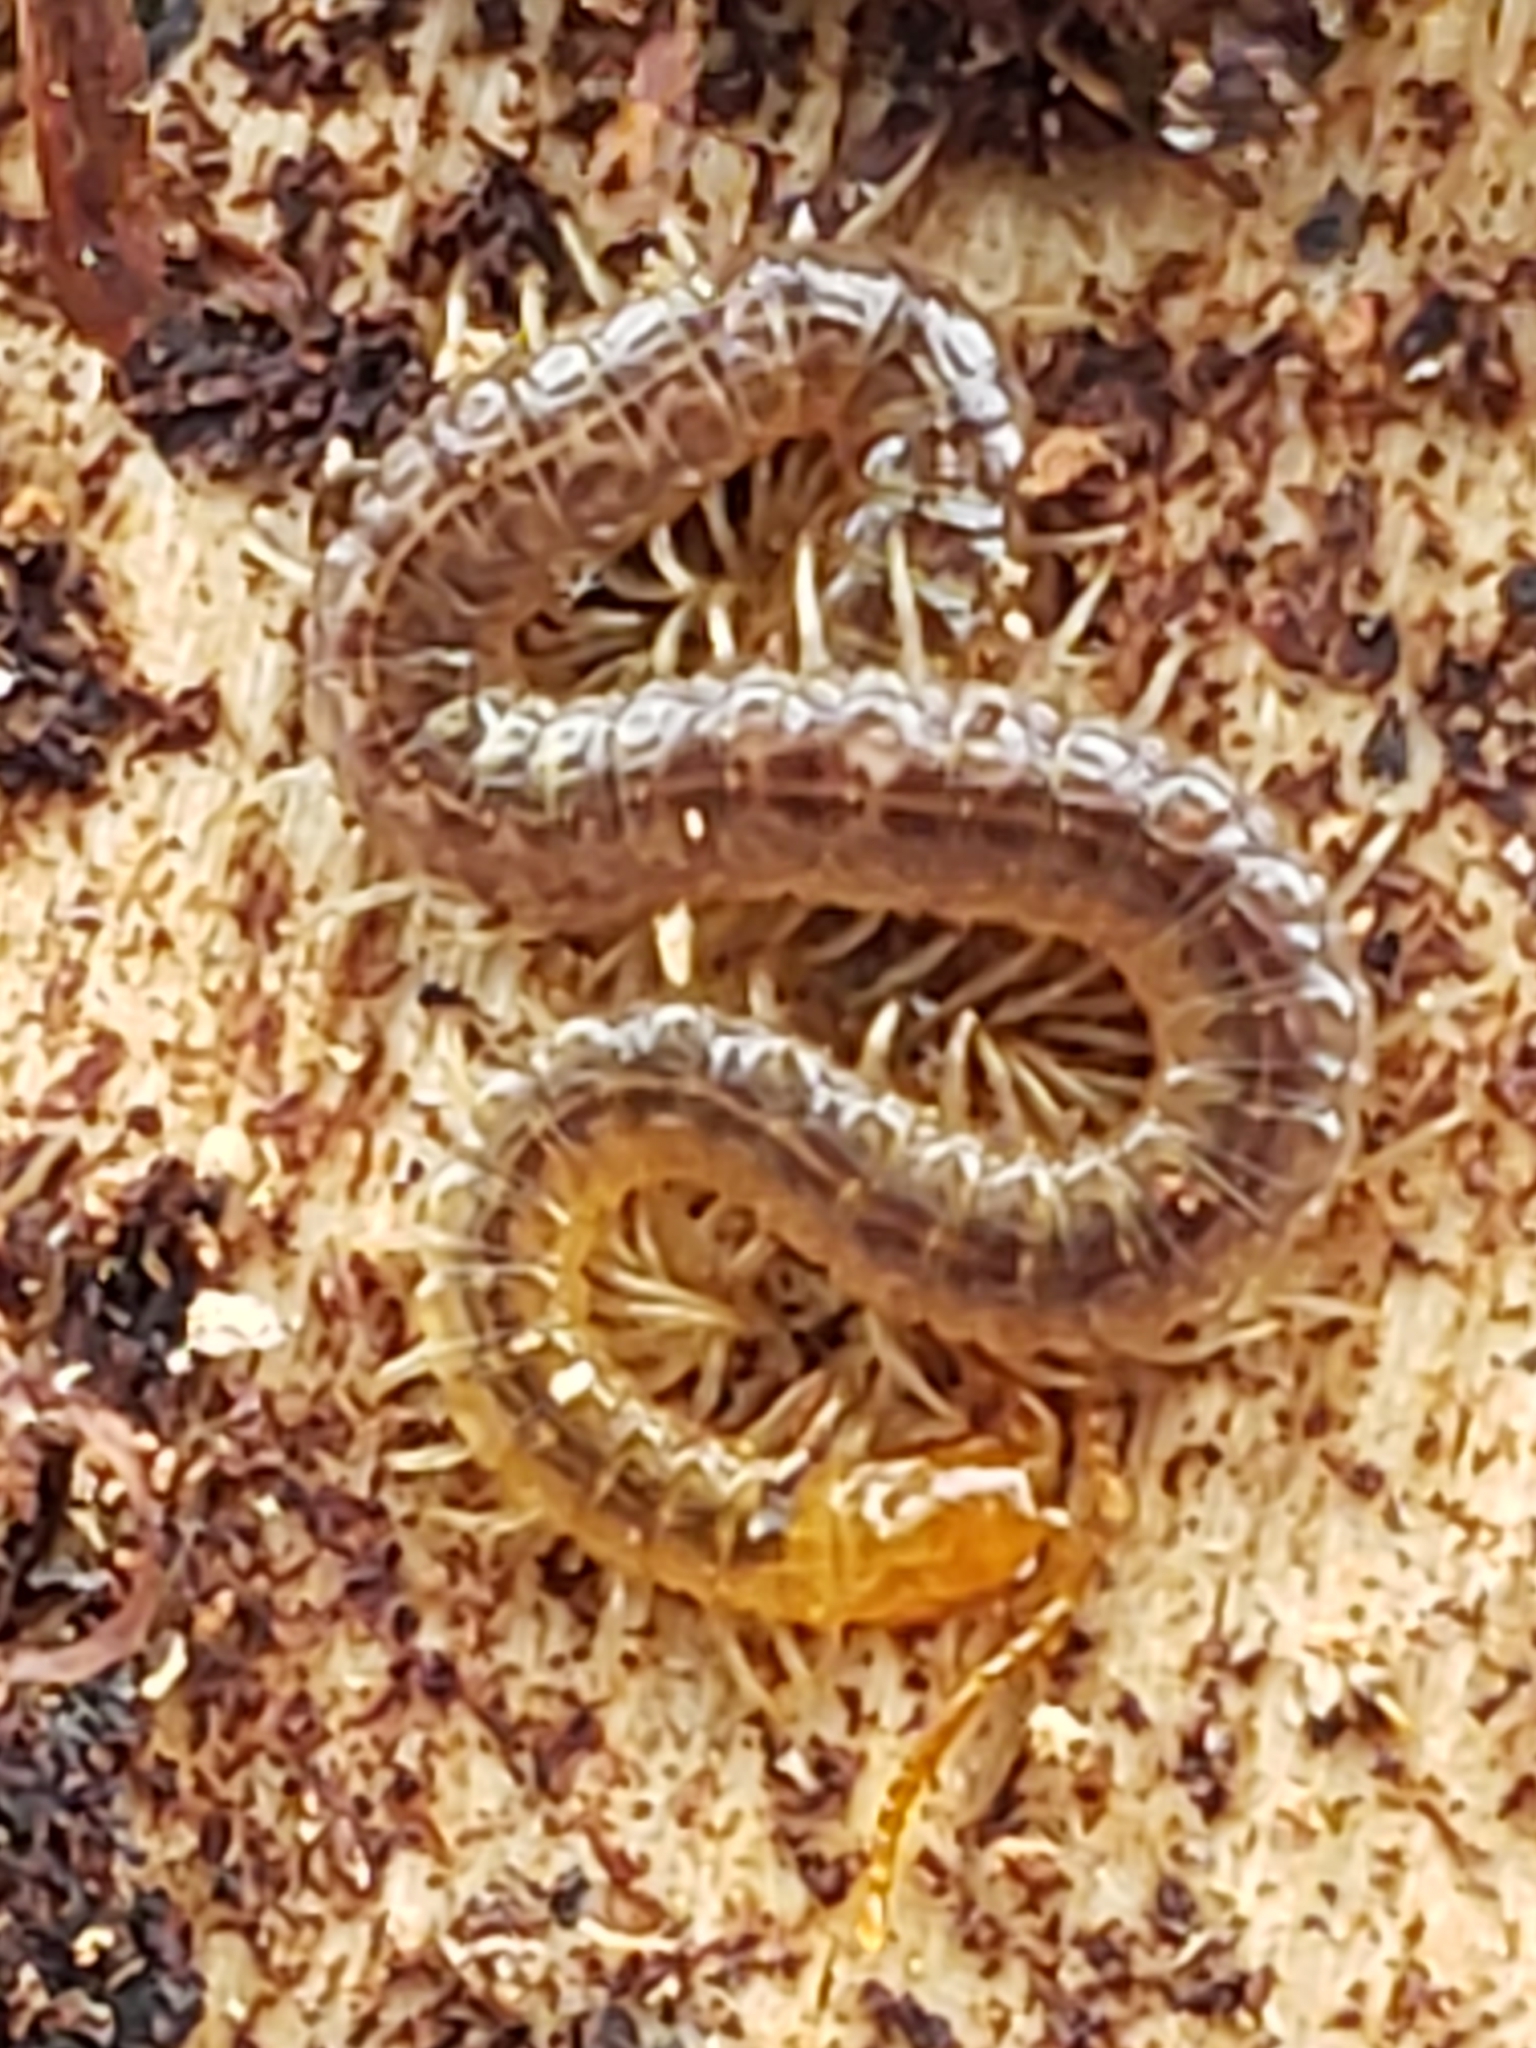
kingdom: Animalia
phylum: Arthropoda
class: Chilopoda
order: Geophilomorpha
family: Geophilidae
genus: Geophilus
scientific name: Geophilus vittatus
